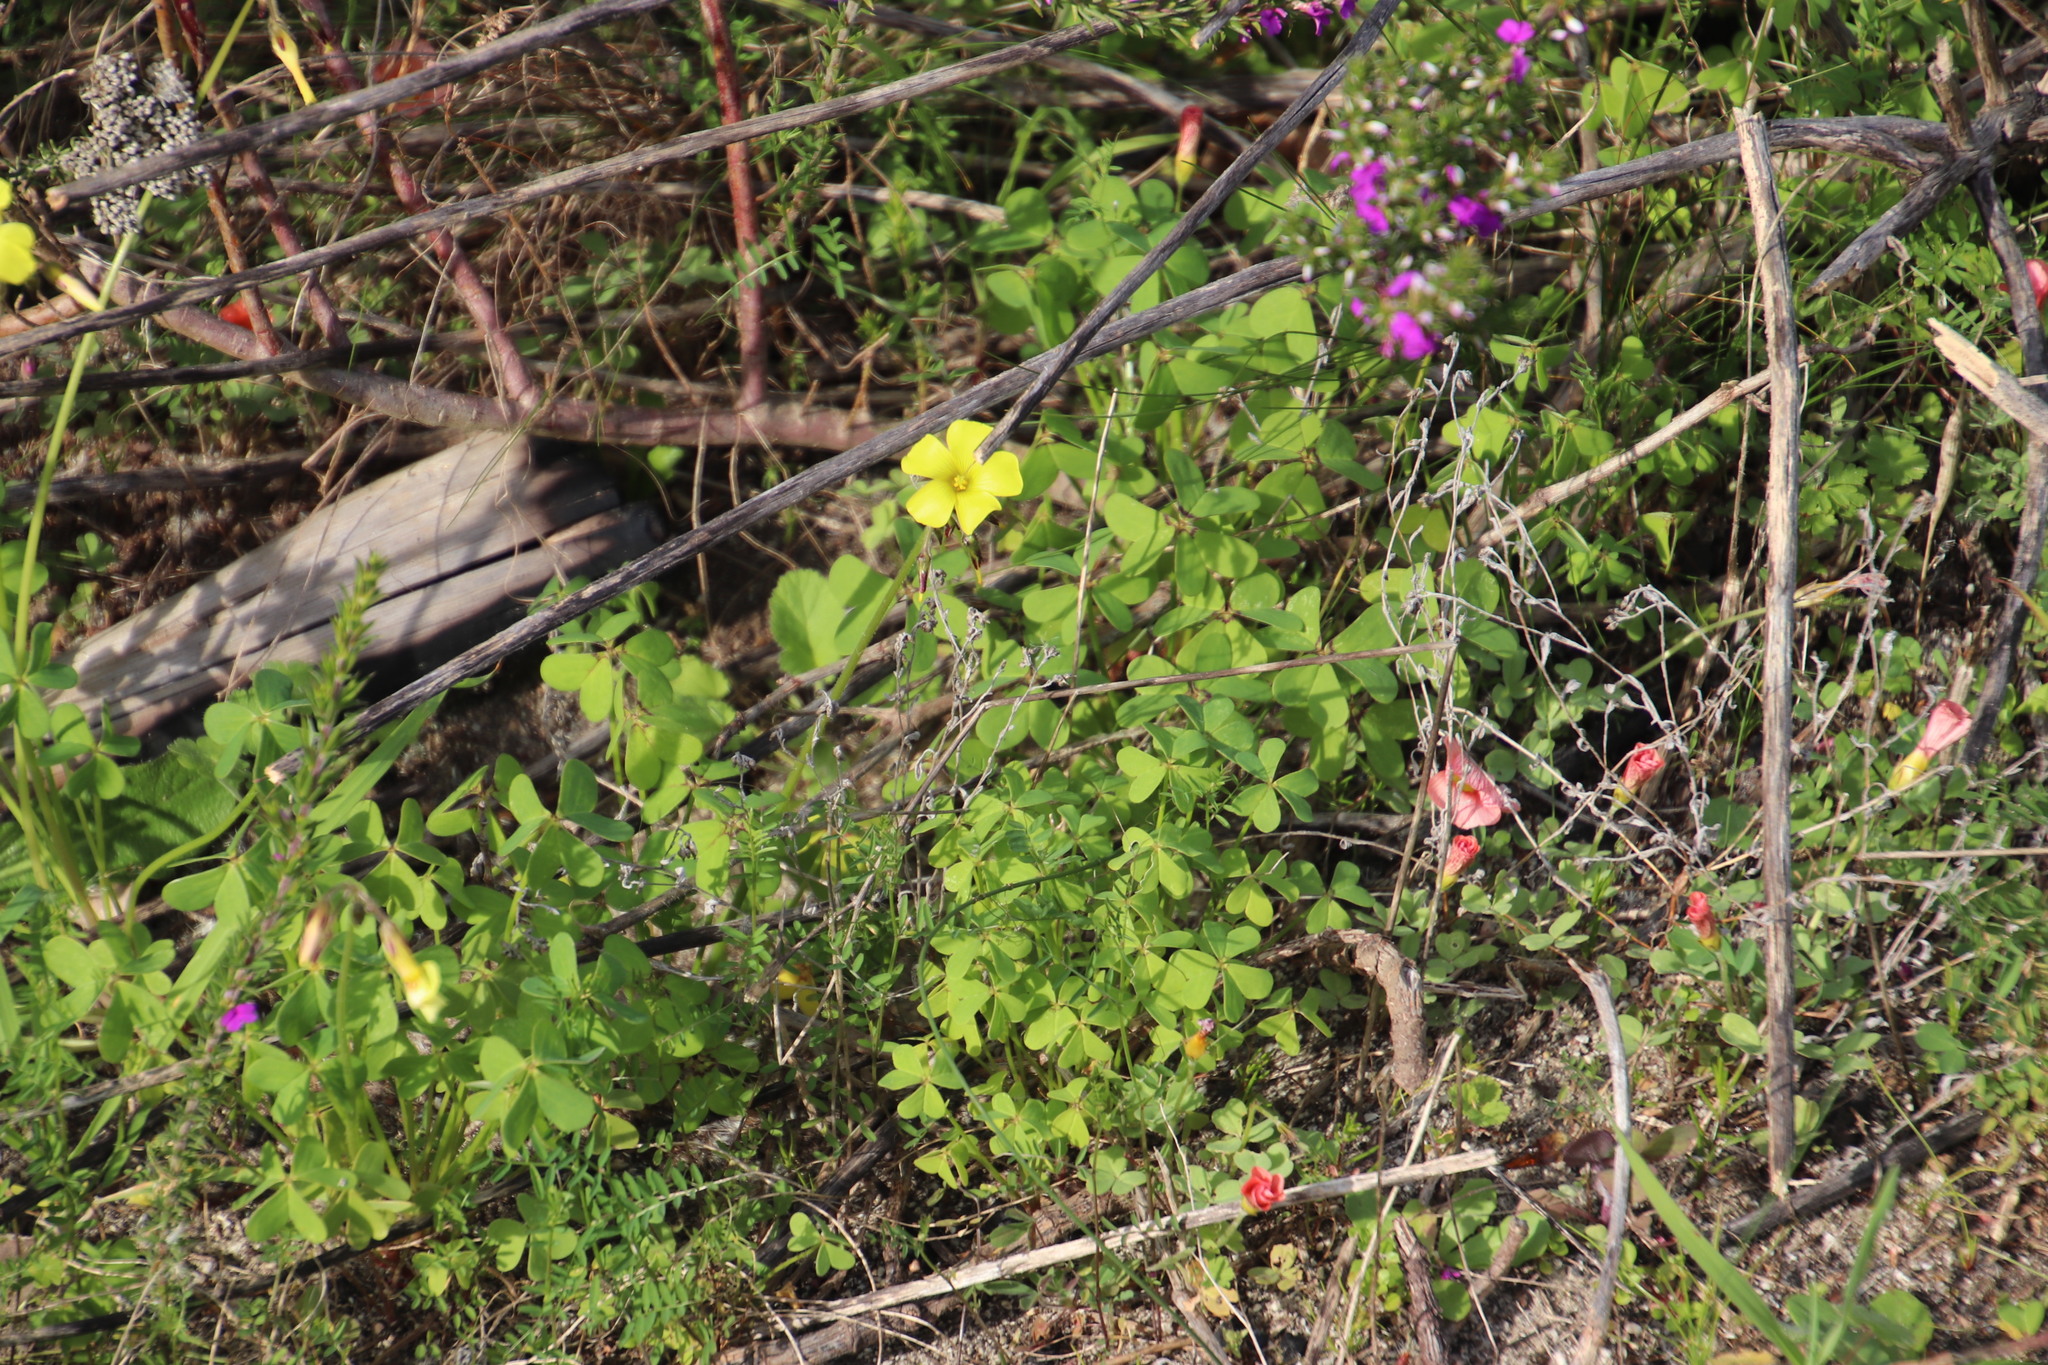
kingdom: Plantae
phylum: Tracheophyta
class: Magnoliopsida
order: Oxalidales
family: Oxalidaceae
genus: Oxalis
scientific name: Oxalis pes-caprae
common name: Bermuda-buttercup
